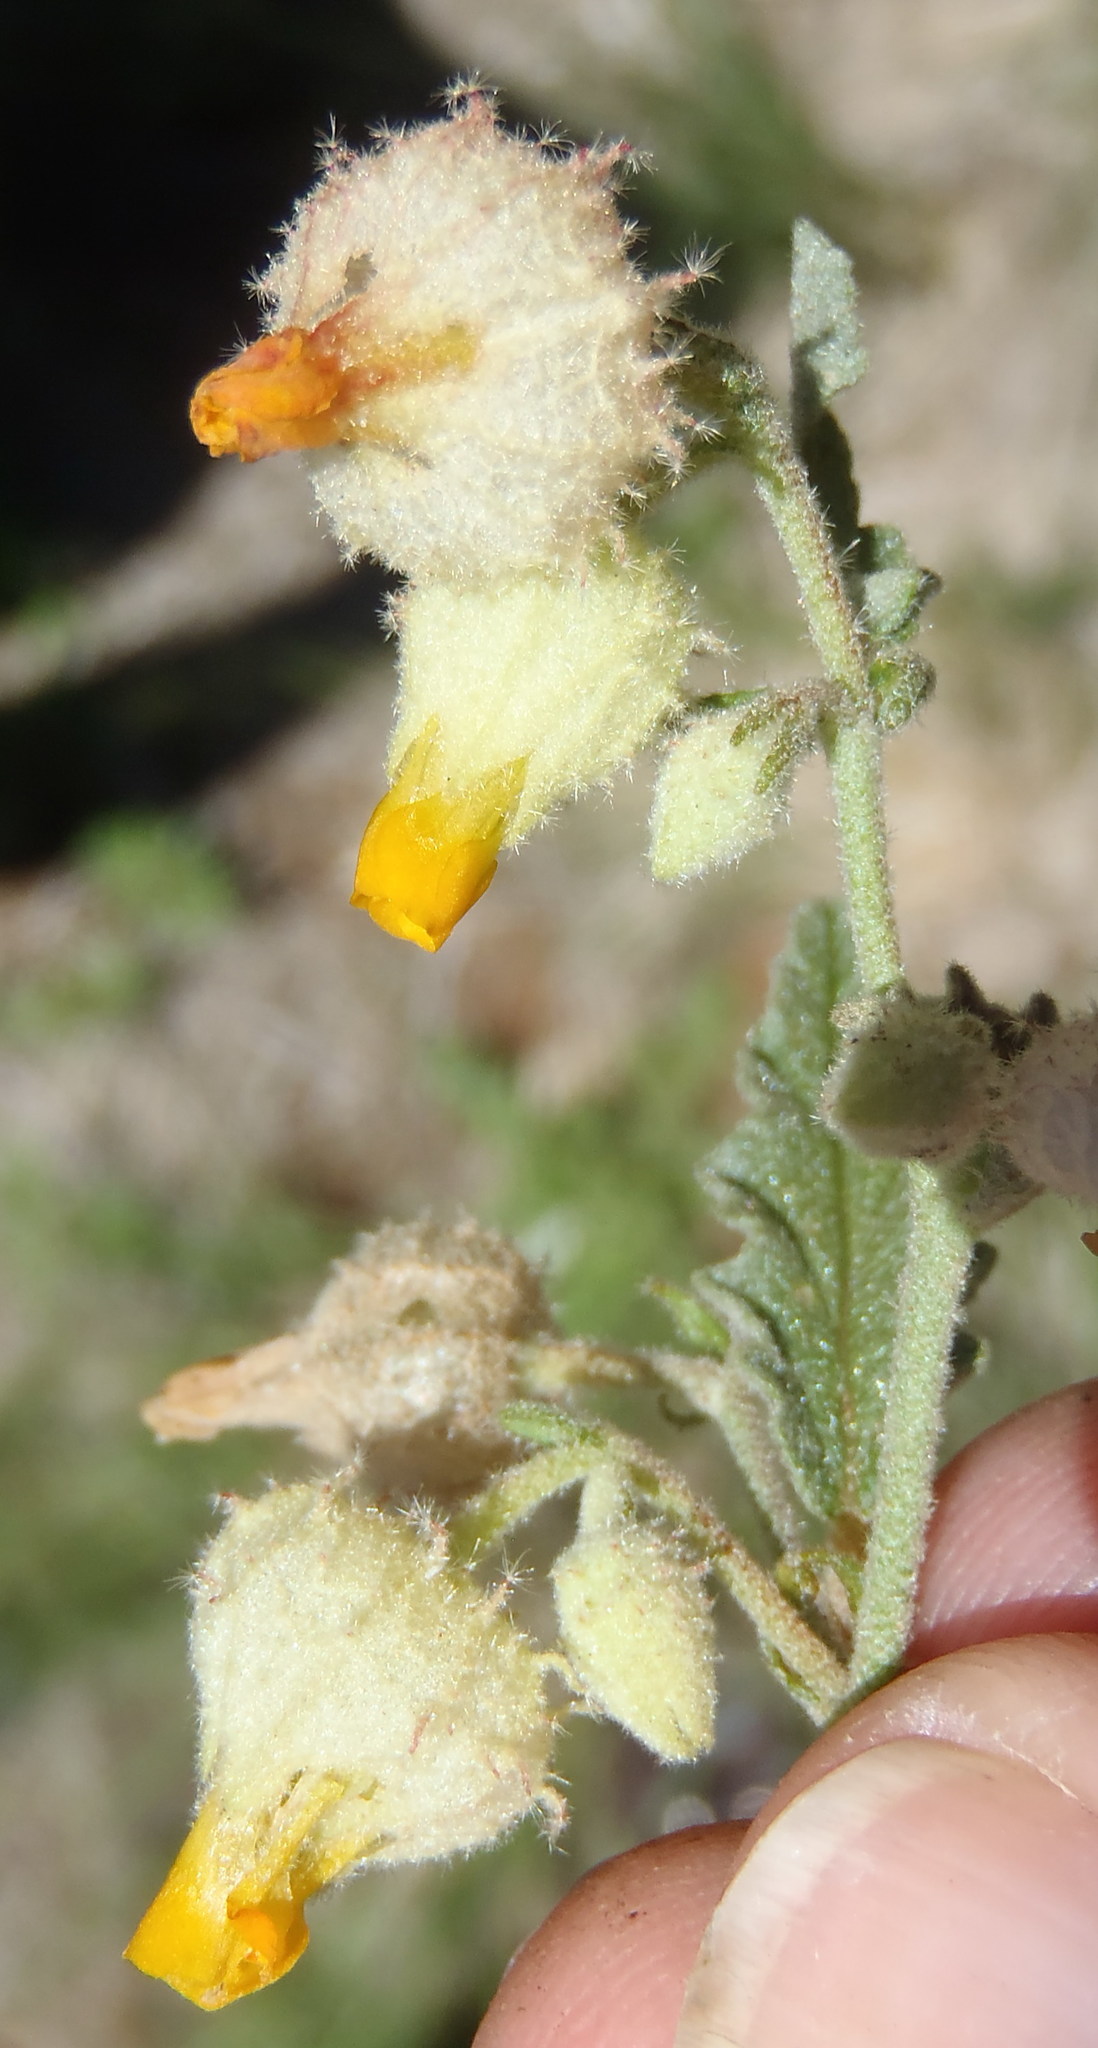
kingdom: Plantae
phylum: Tracheophyta
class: Magnoliopsida
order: Malvales
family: Malvaceae
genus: Hermannia
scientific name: Hermannia grandistipula
